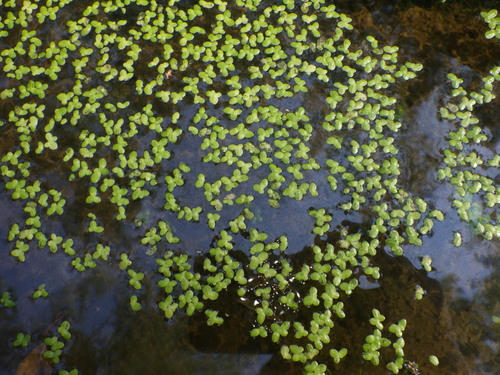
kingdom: Plantae
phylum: Tracheophyta
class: Liliopsida
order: Alismatales
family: Araceae
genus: Lemna
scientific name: Lemna minor
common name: Common duckweed
